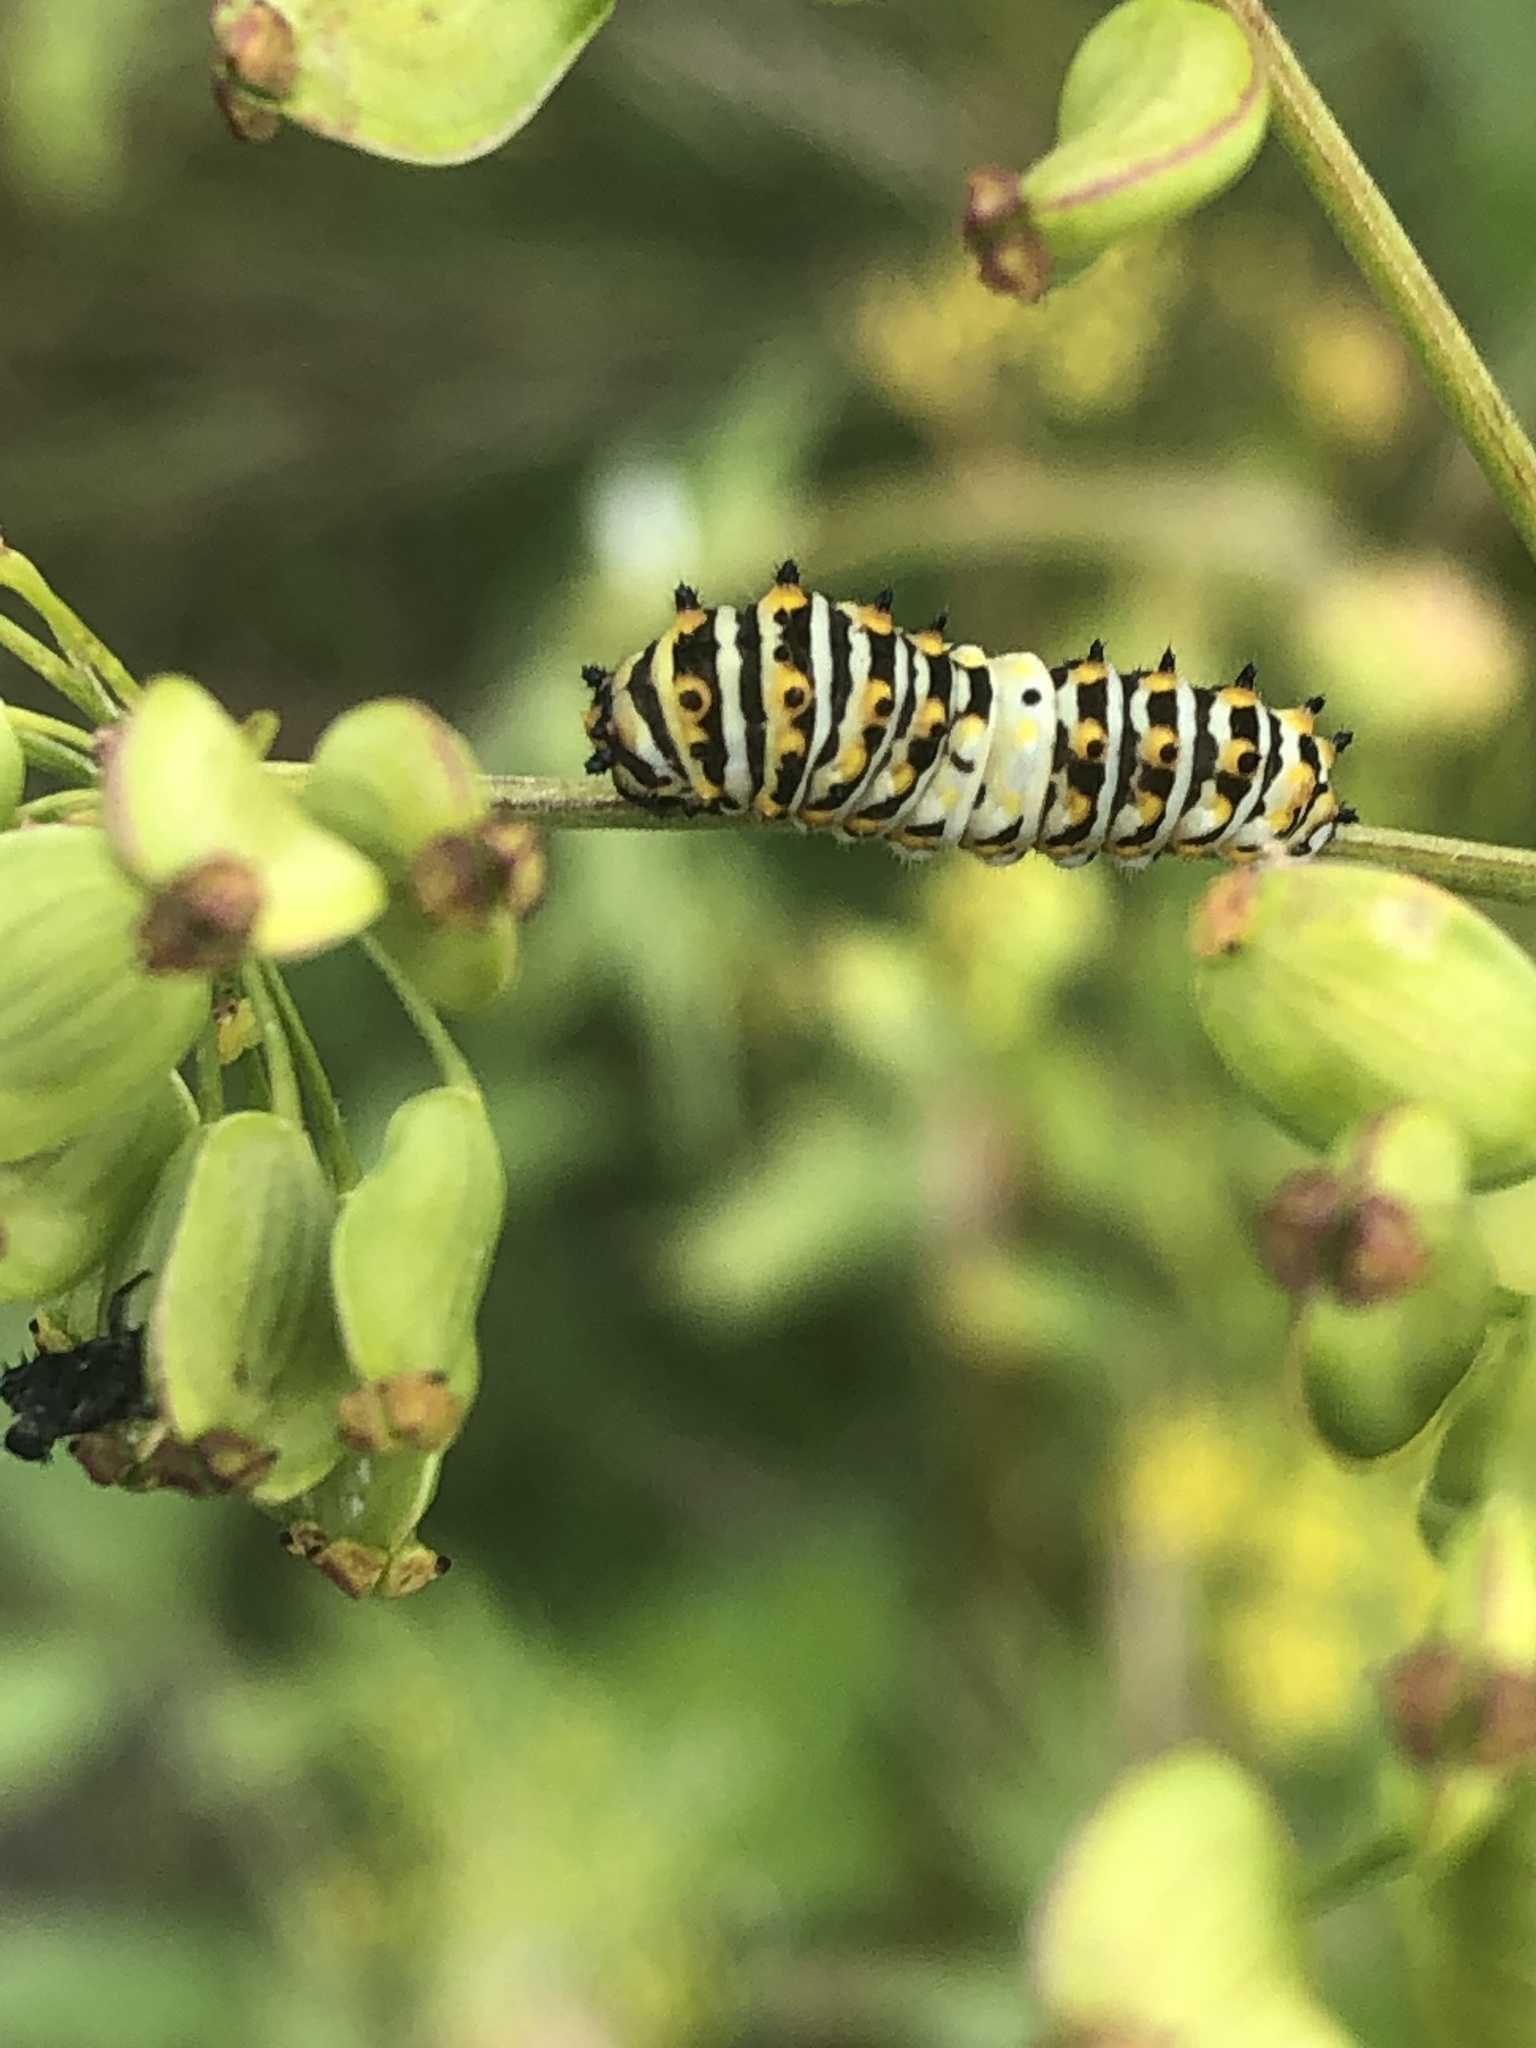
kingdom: Animalia
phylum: Arthropoda
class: Insecta
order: Lepidoptera
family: Papilionidae
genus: Papilio
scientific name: Papilio polyxenes
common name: Black swallowtail
